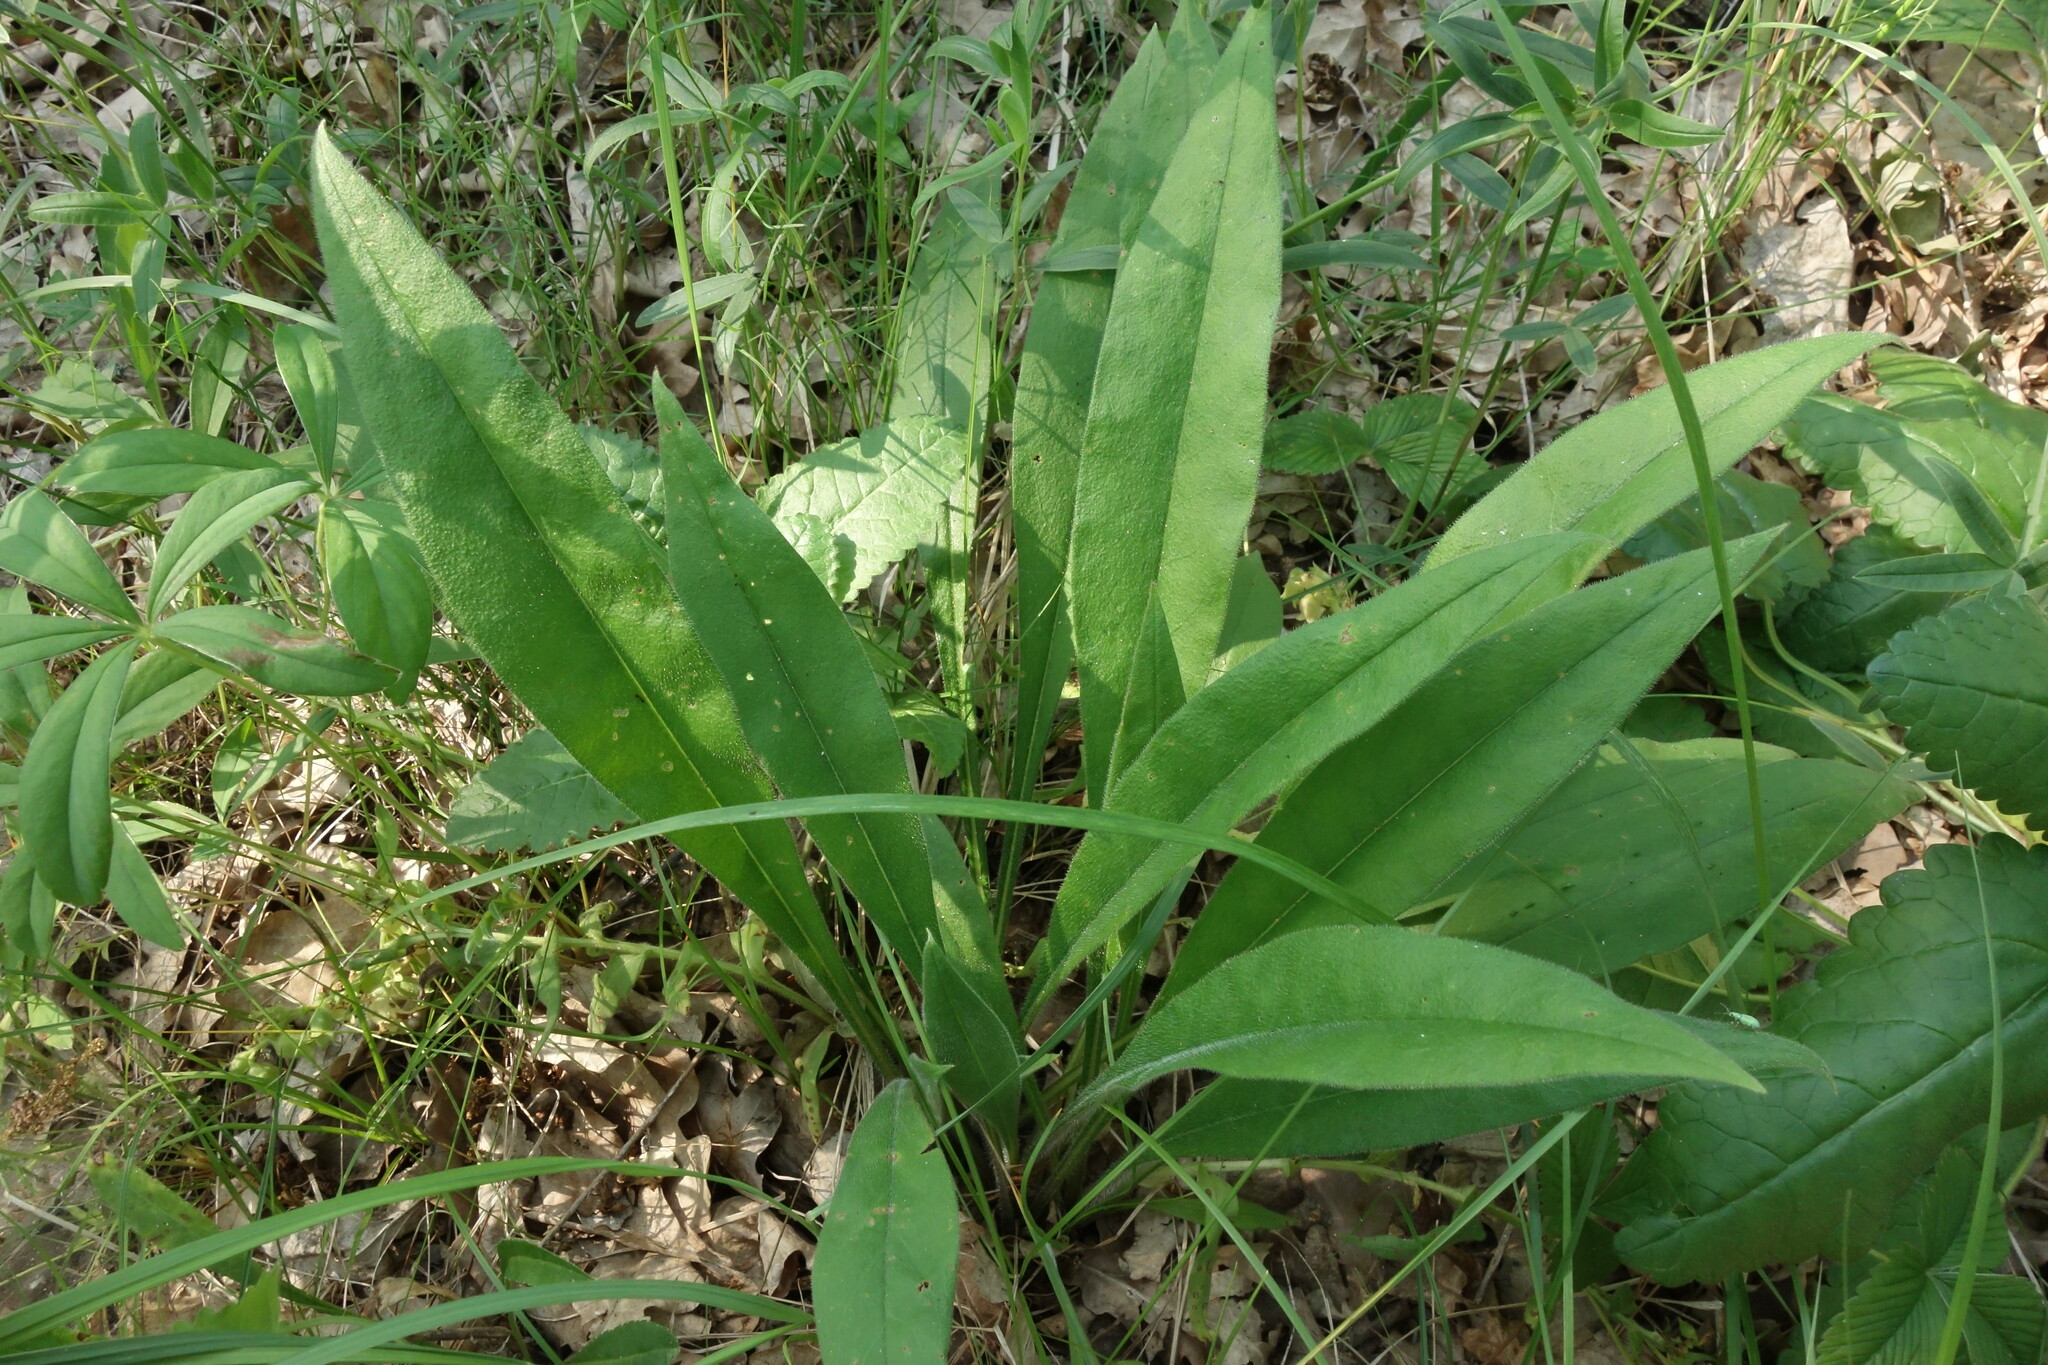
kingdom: Plantae
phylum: Tracheophyta
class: Magnoliopsida
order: Boraginales
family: Boraginaceae
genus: Pulmonaria
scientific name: Pulmonaria angustifolia
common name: Blue cowslip
